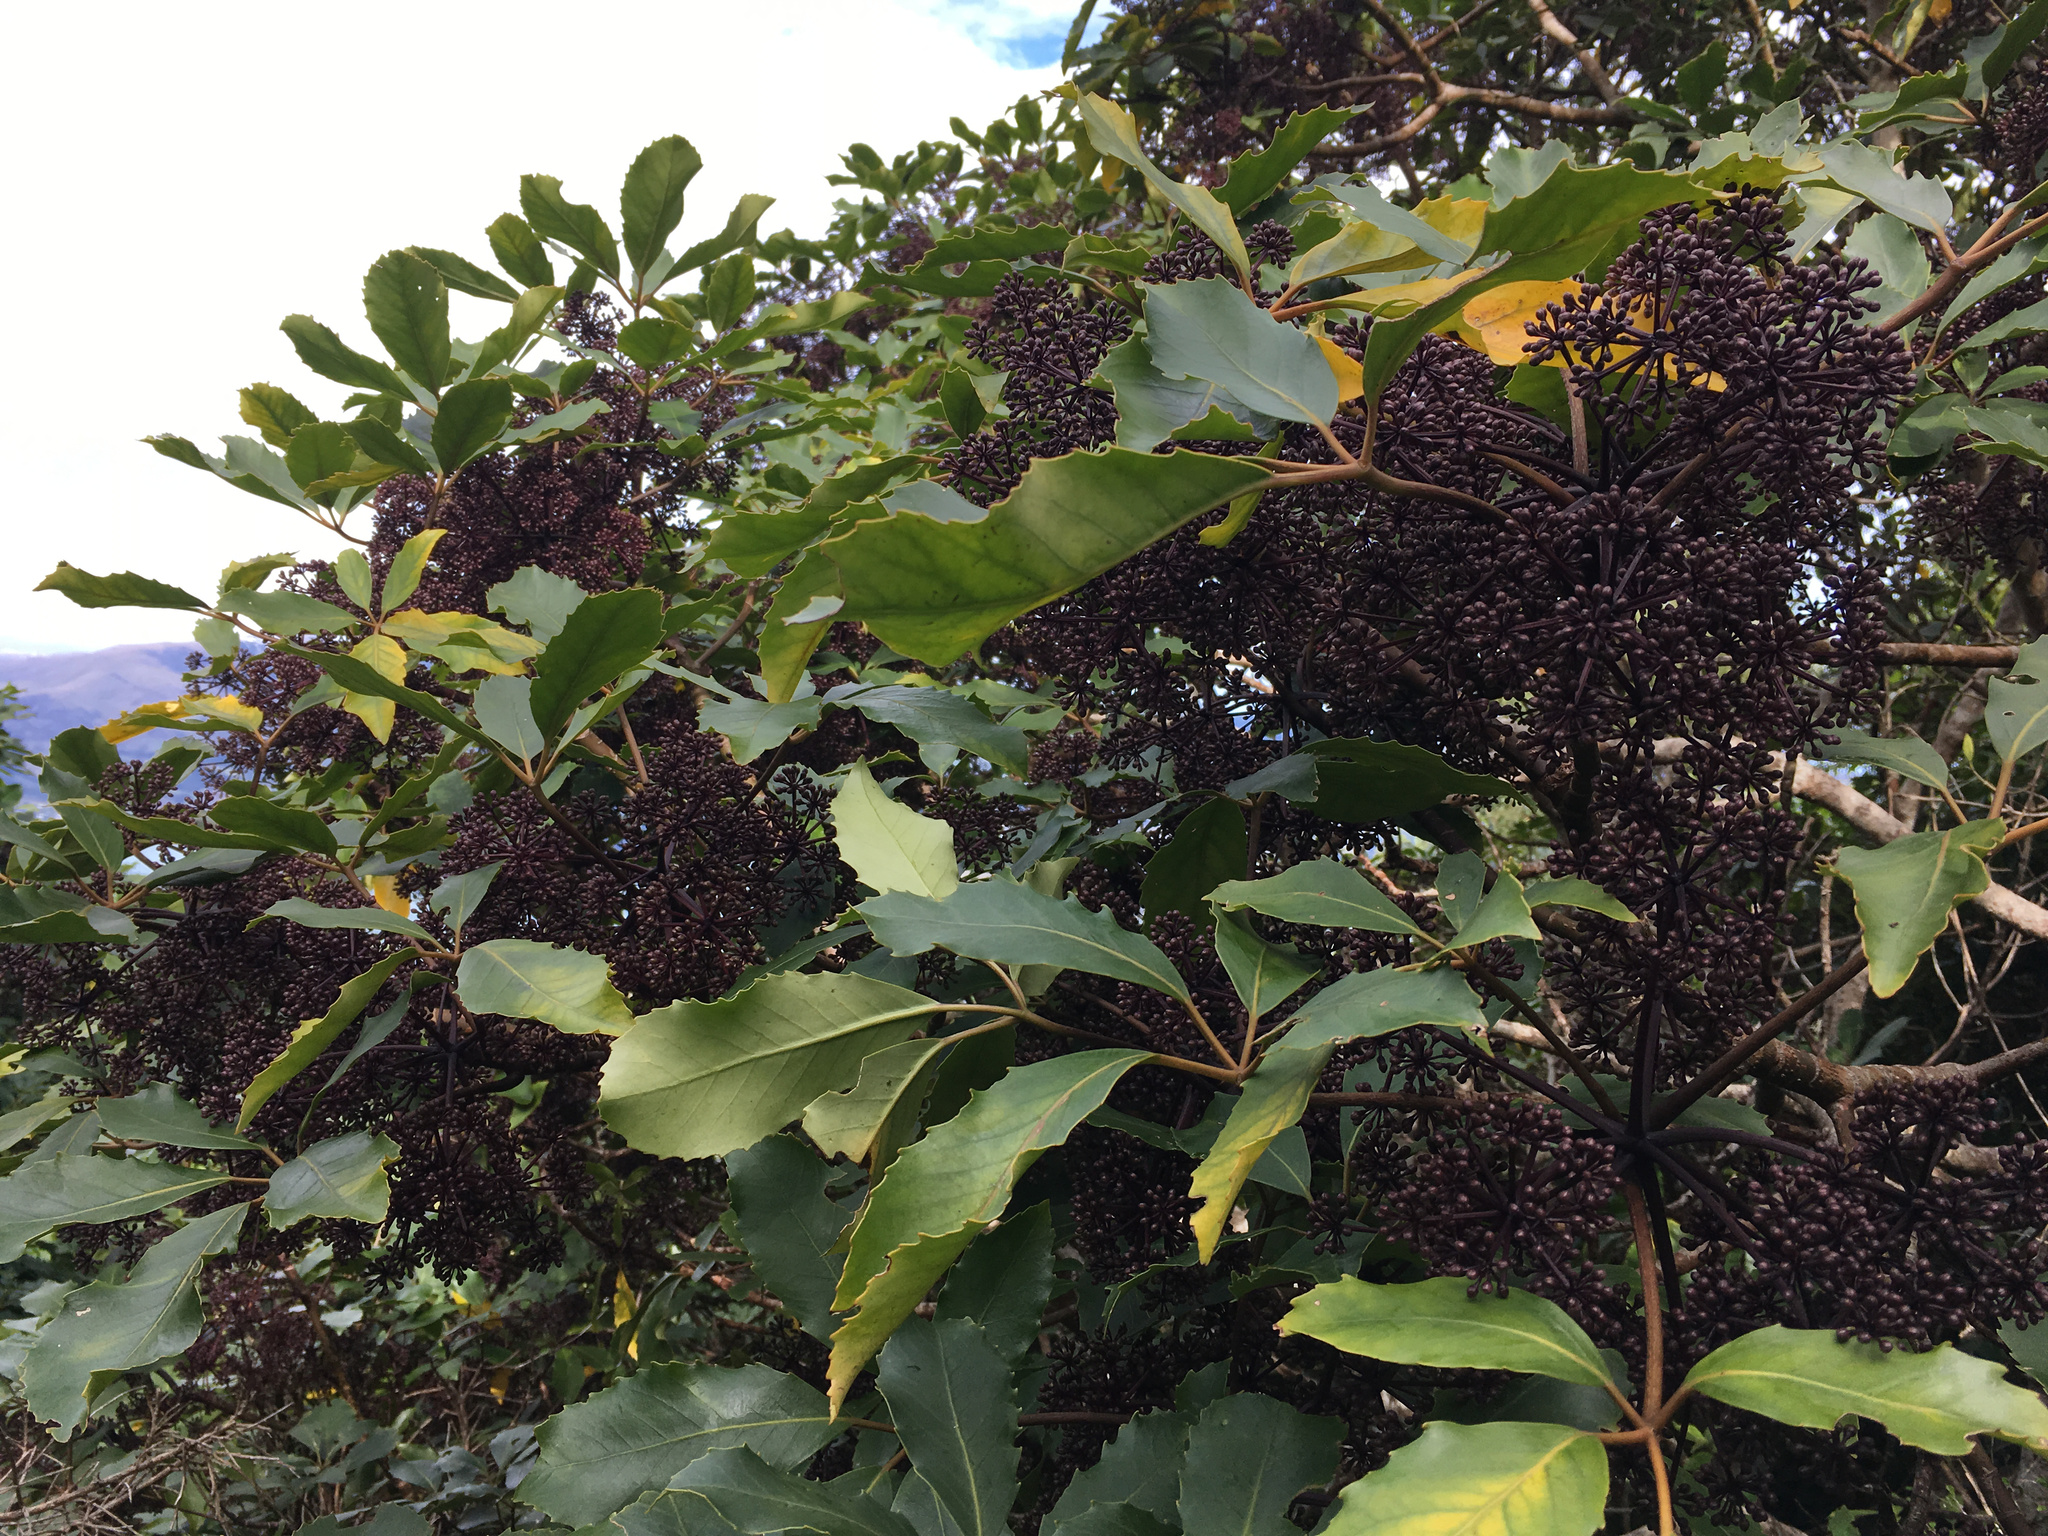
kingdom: Plantae
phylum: Tracheophyta
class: Magnoliopsida
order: Apiales
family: Araliaceae
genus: Neopanax
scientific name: Neopanax arboreus
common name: Five-fingers
